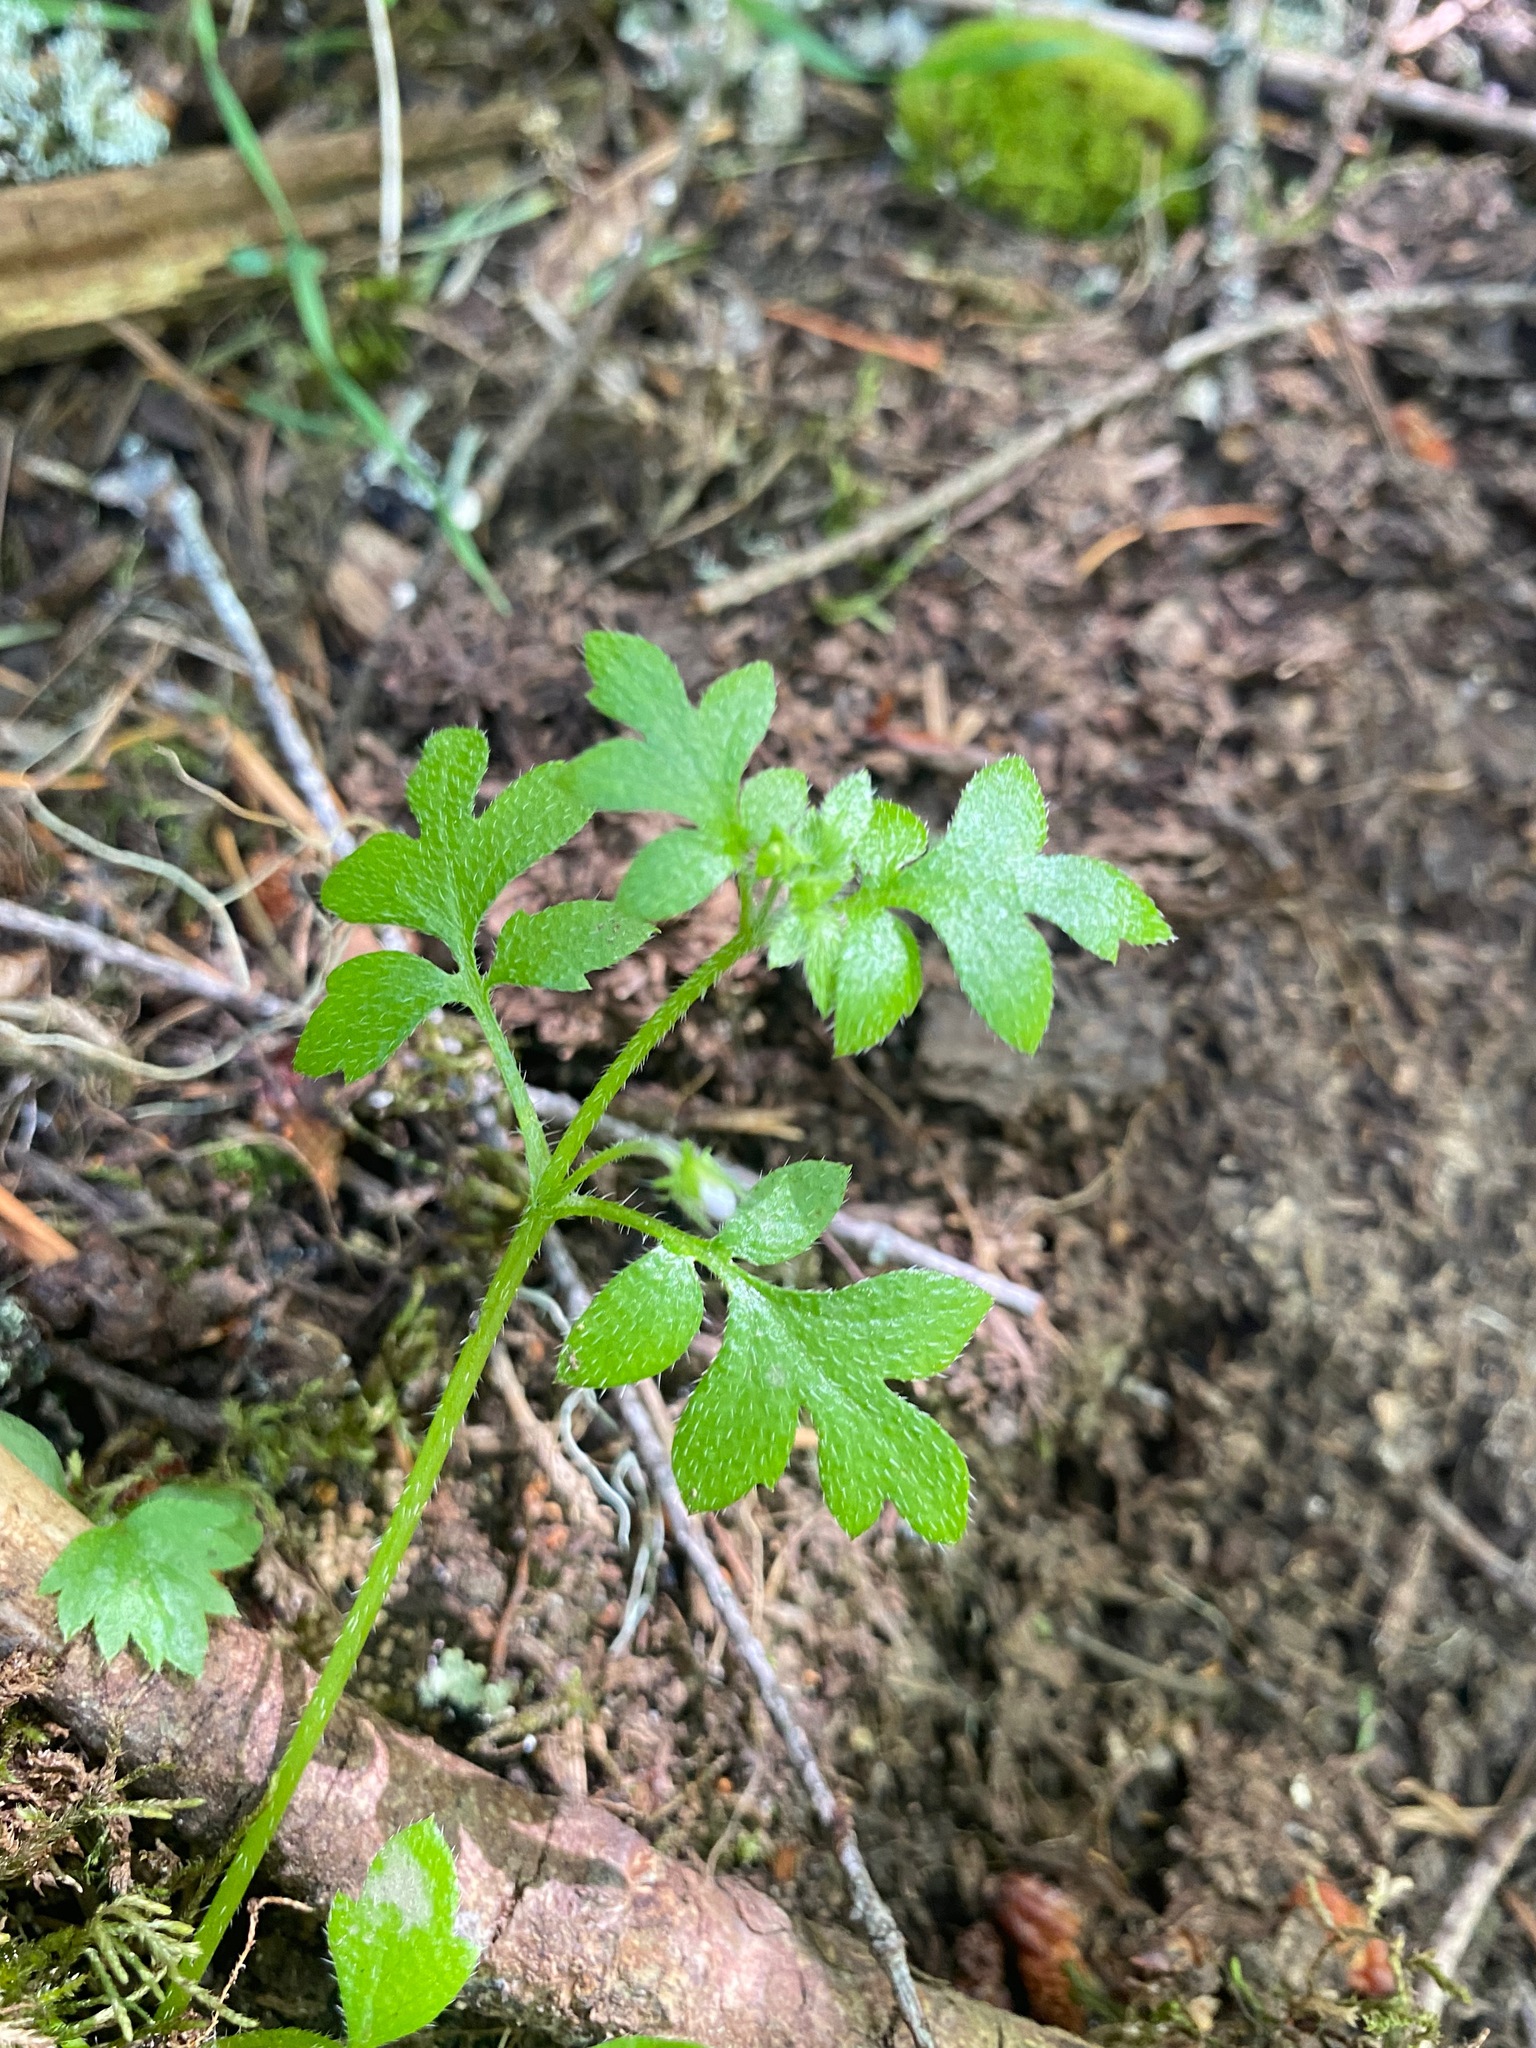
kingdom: Plantae
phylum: Tracheophyta
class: Magnoliopsida
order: Boraginales
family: Hydrophyllaceae
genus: Nemophila
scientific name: Nemophila parviflora
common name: Small-flowered baby-blue-eyes
